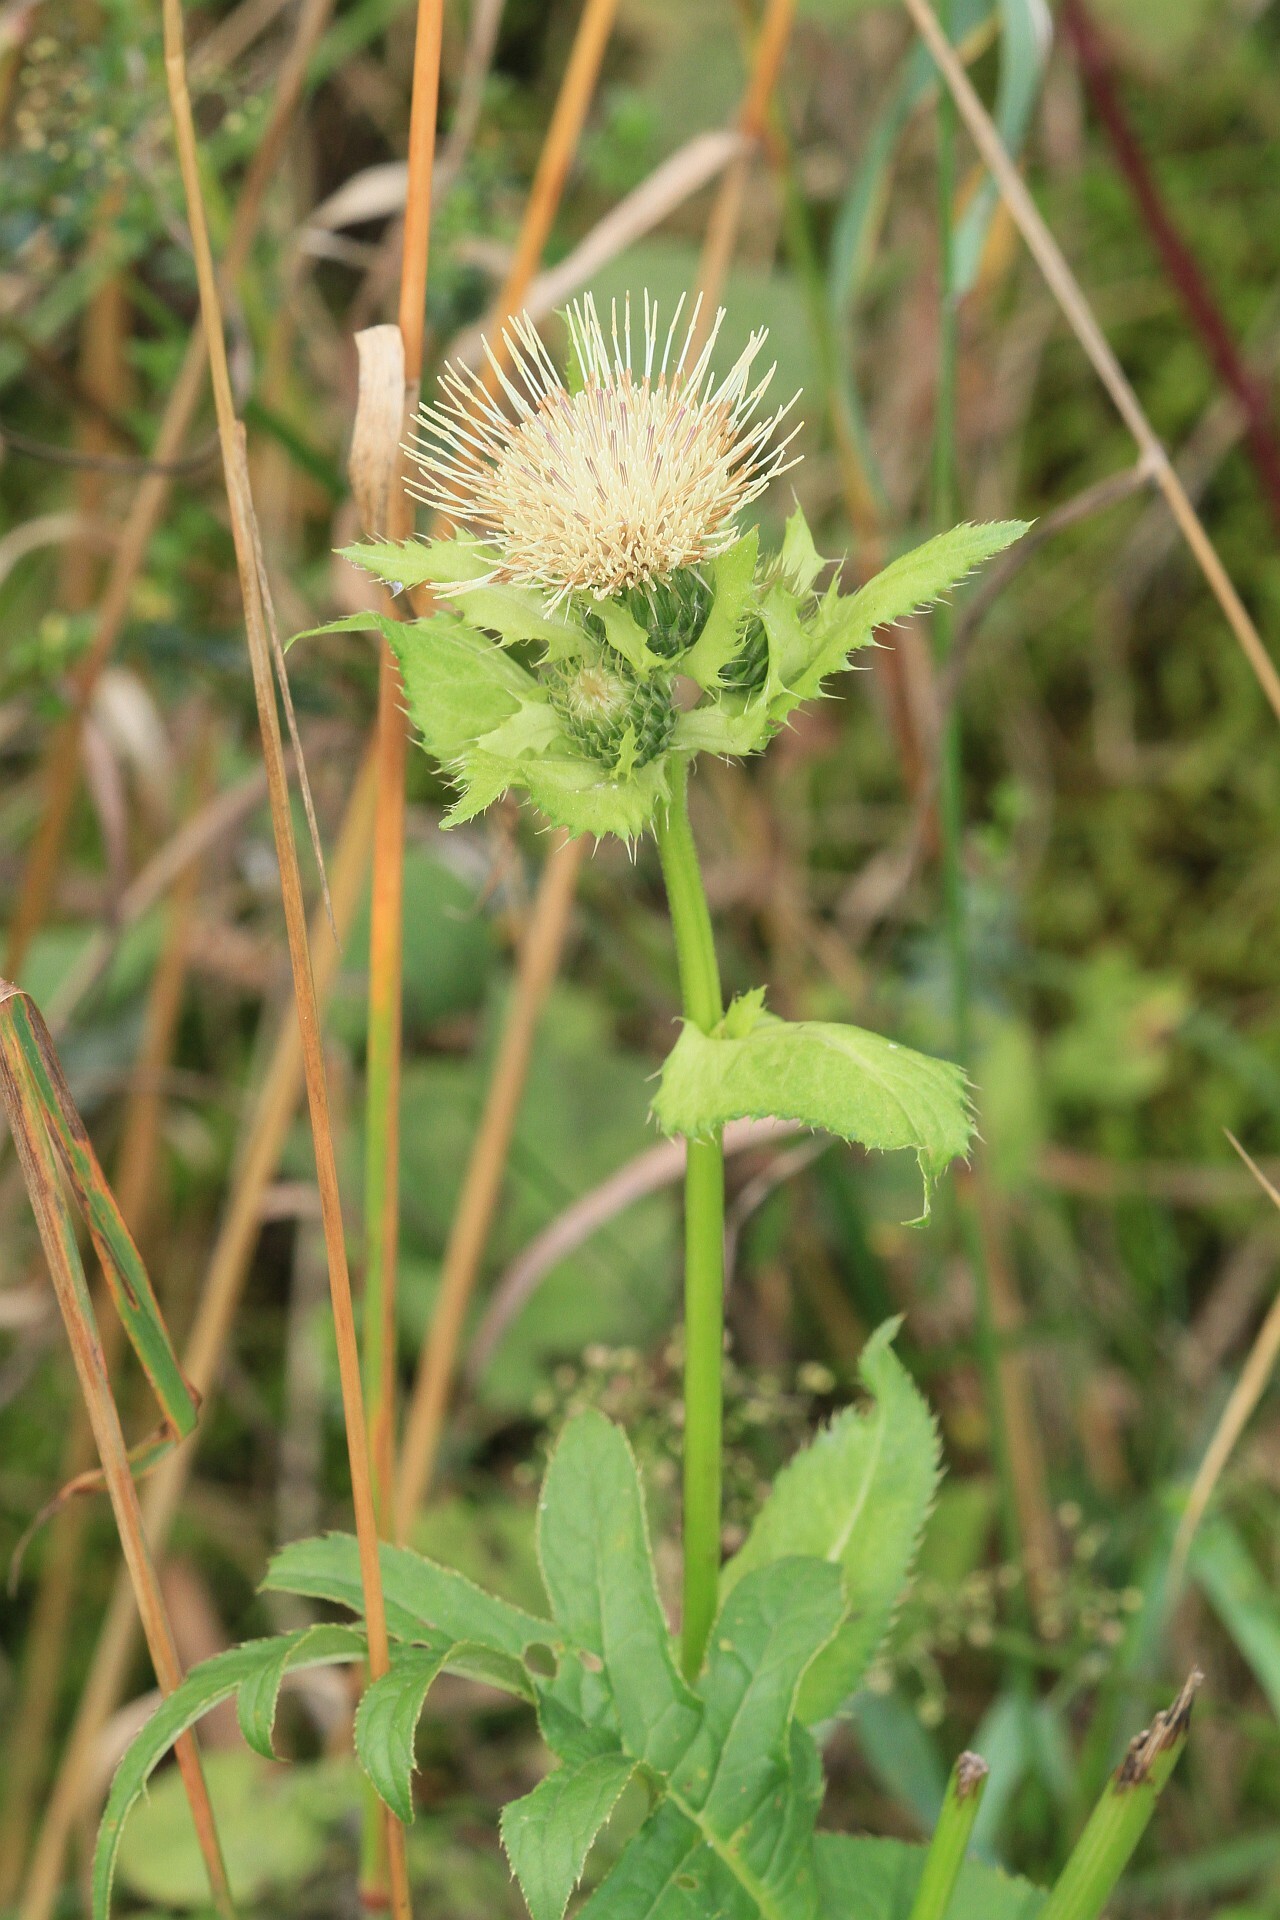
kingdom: Plantae
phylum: Tracheophyta
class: Magnoliopsida
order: Asterales
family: Asteraceae
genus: Cirsium
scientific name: Cirsium oleraceum
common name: Cabbage thistle
